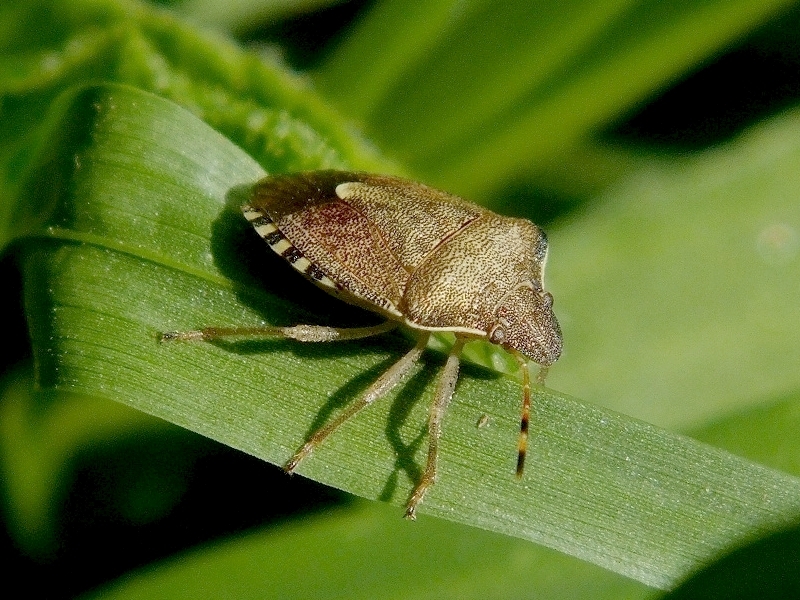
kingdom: Animalia
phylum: Arthropoda
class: Insecta
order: Hemiptera
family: Pentatomidae
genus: Holcostethus
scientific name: Holcostethus strictus
